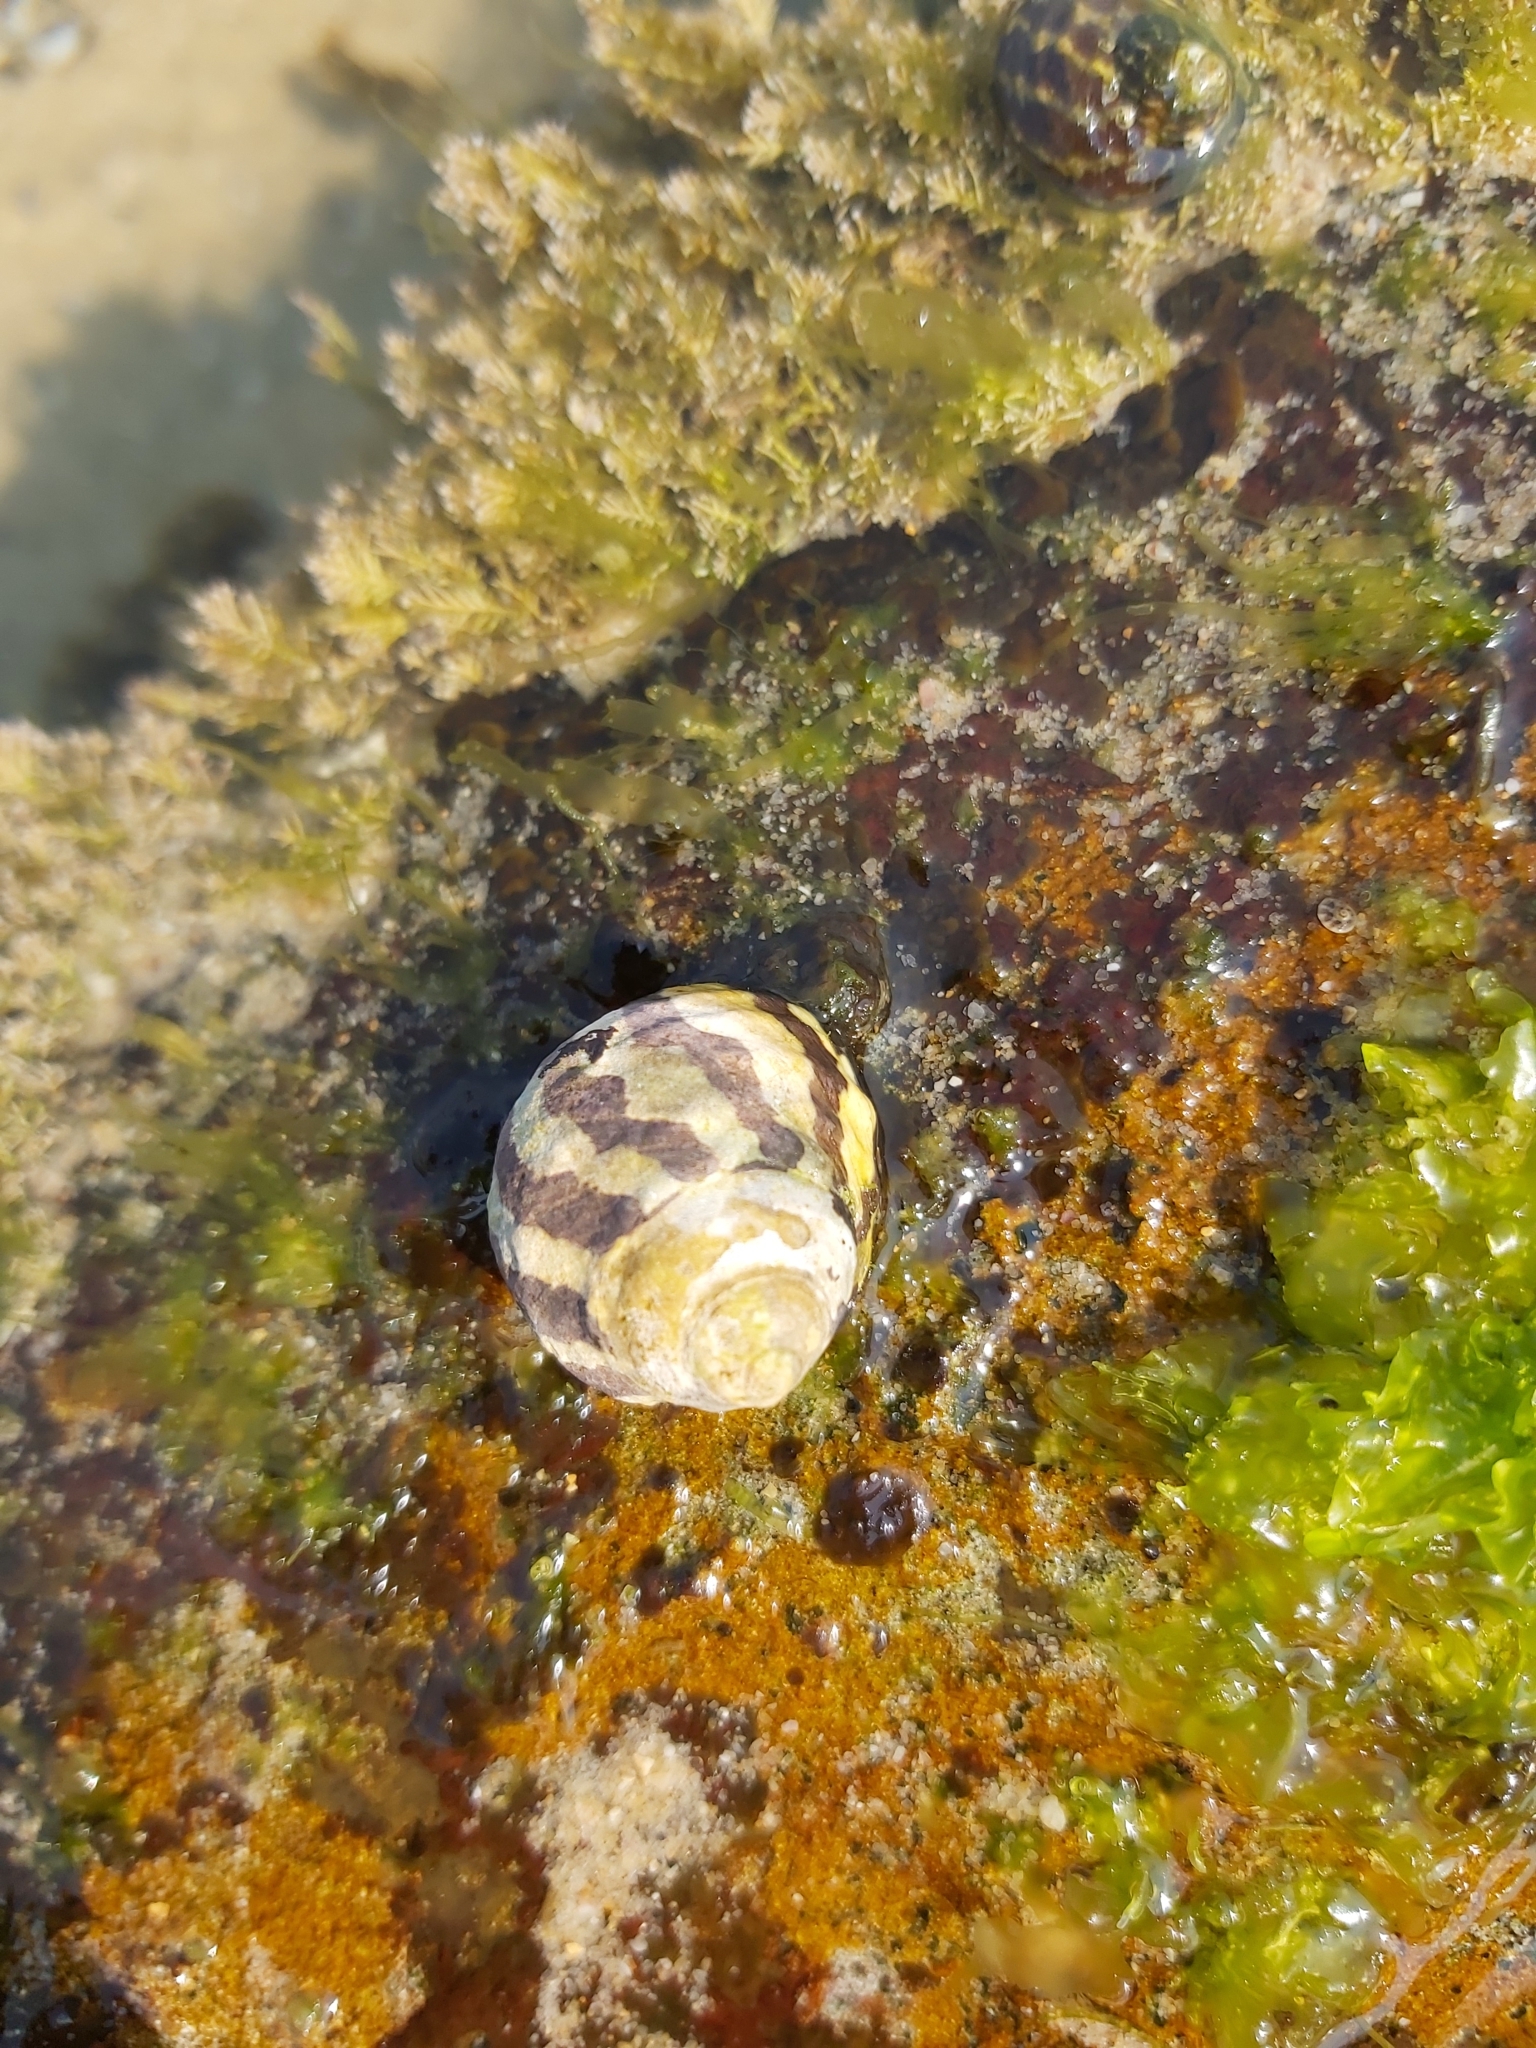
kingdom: Animalia
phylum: Mollusca
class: Gastropoda
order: Trochida
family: Trochidae
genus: Austrocochlea
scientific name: Austrocochlea porcata
